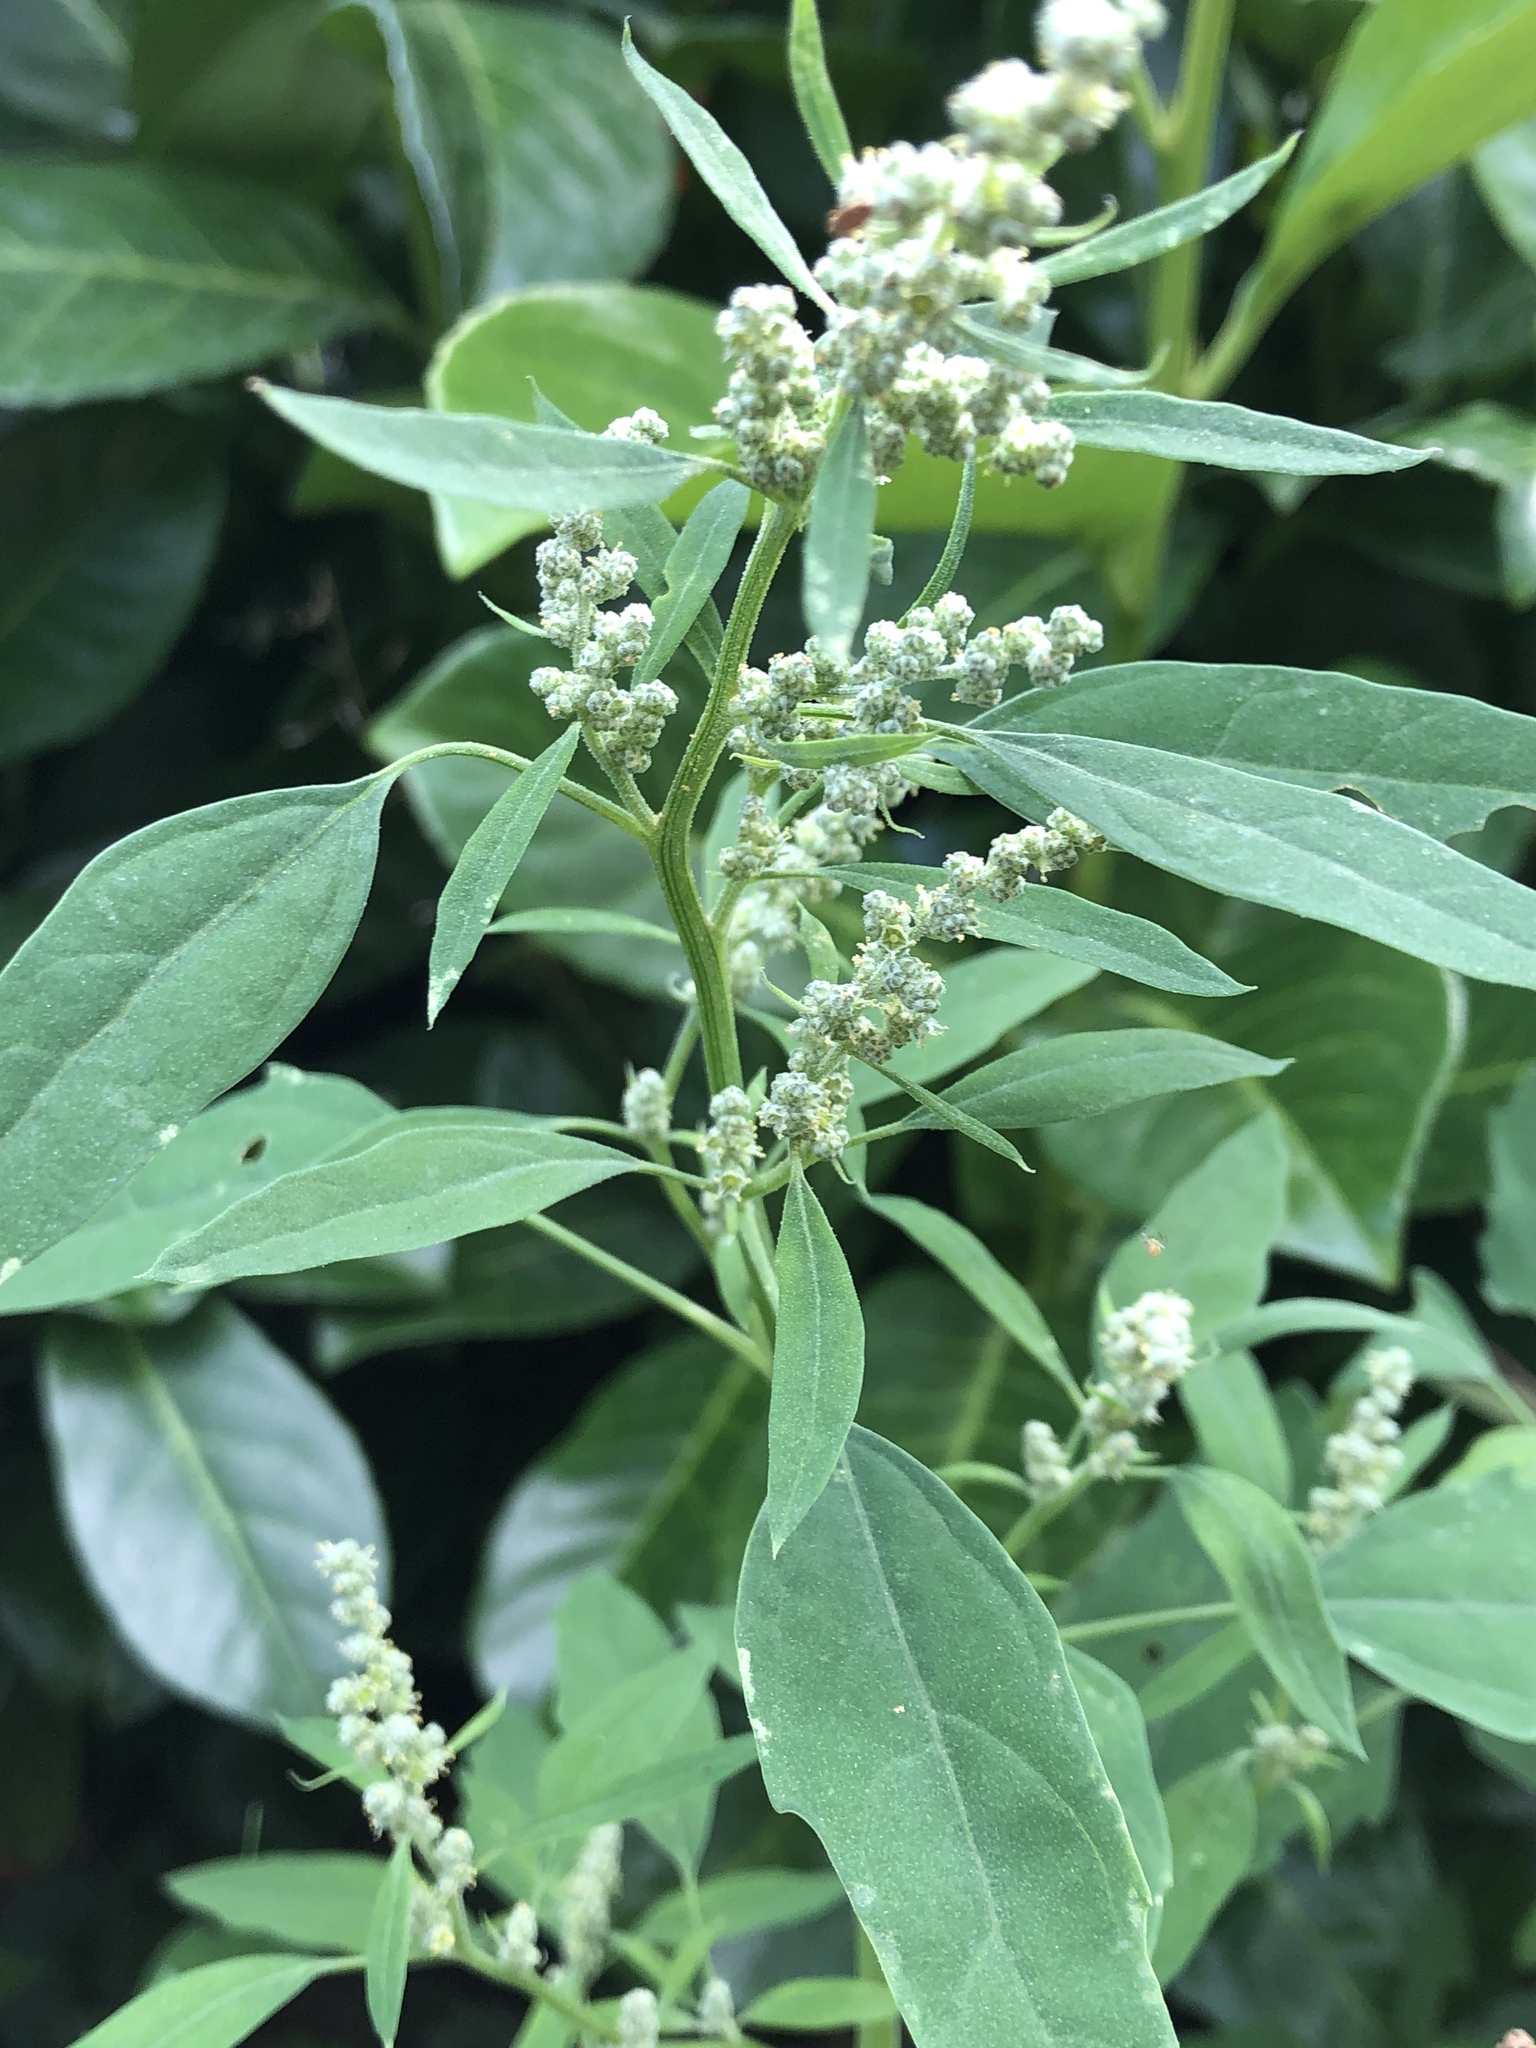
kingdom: Plantae
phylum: Tracheophyta
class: Magnoliopsida
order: Caryophyllales
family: Amaranthaceae
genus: Chenopodium
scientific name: Chenopodium album
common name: Fat-hen
